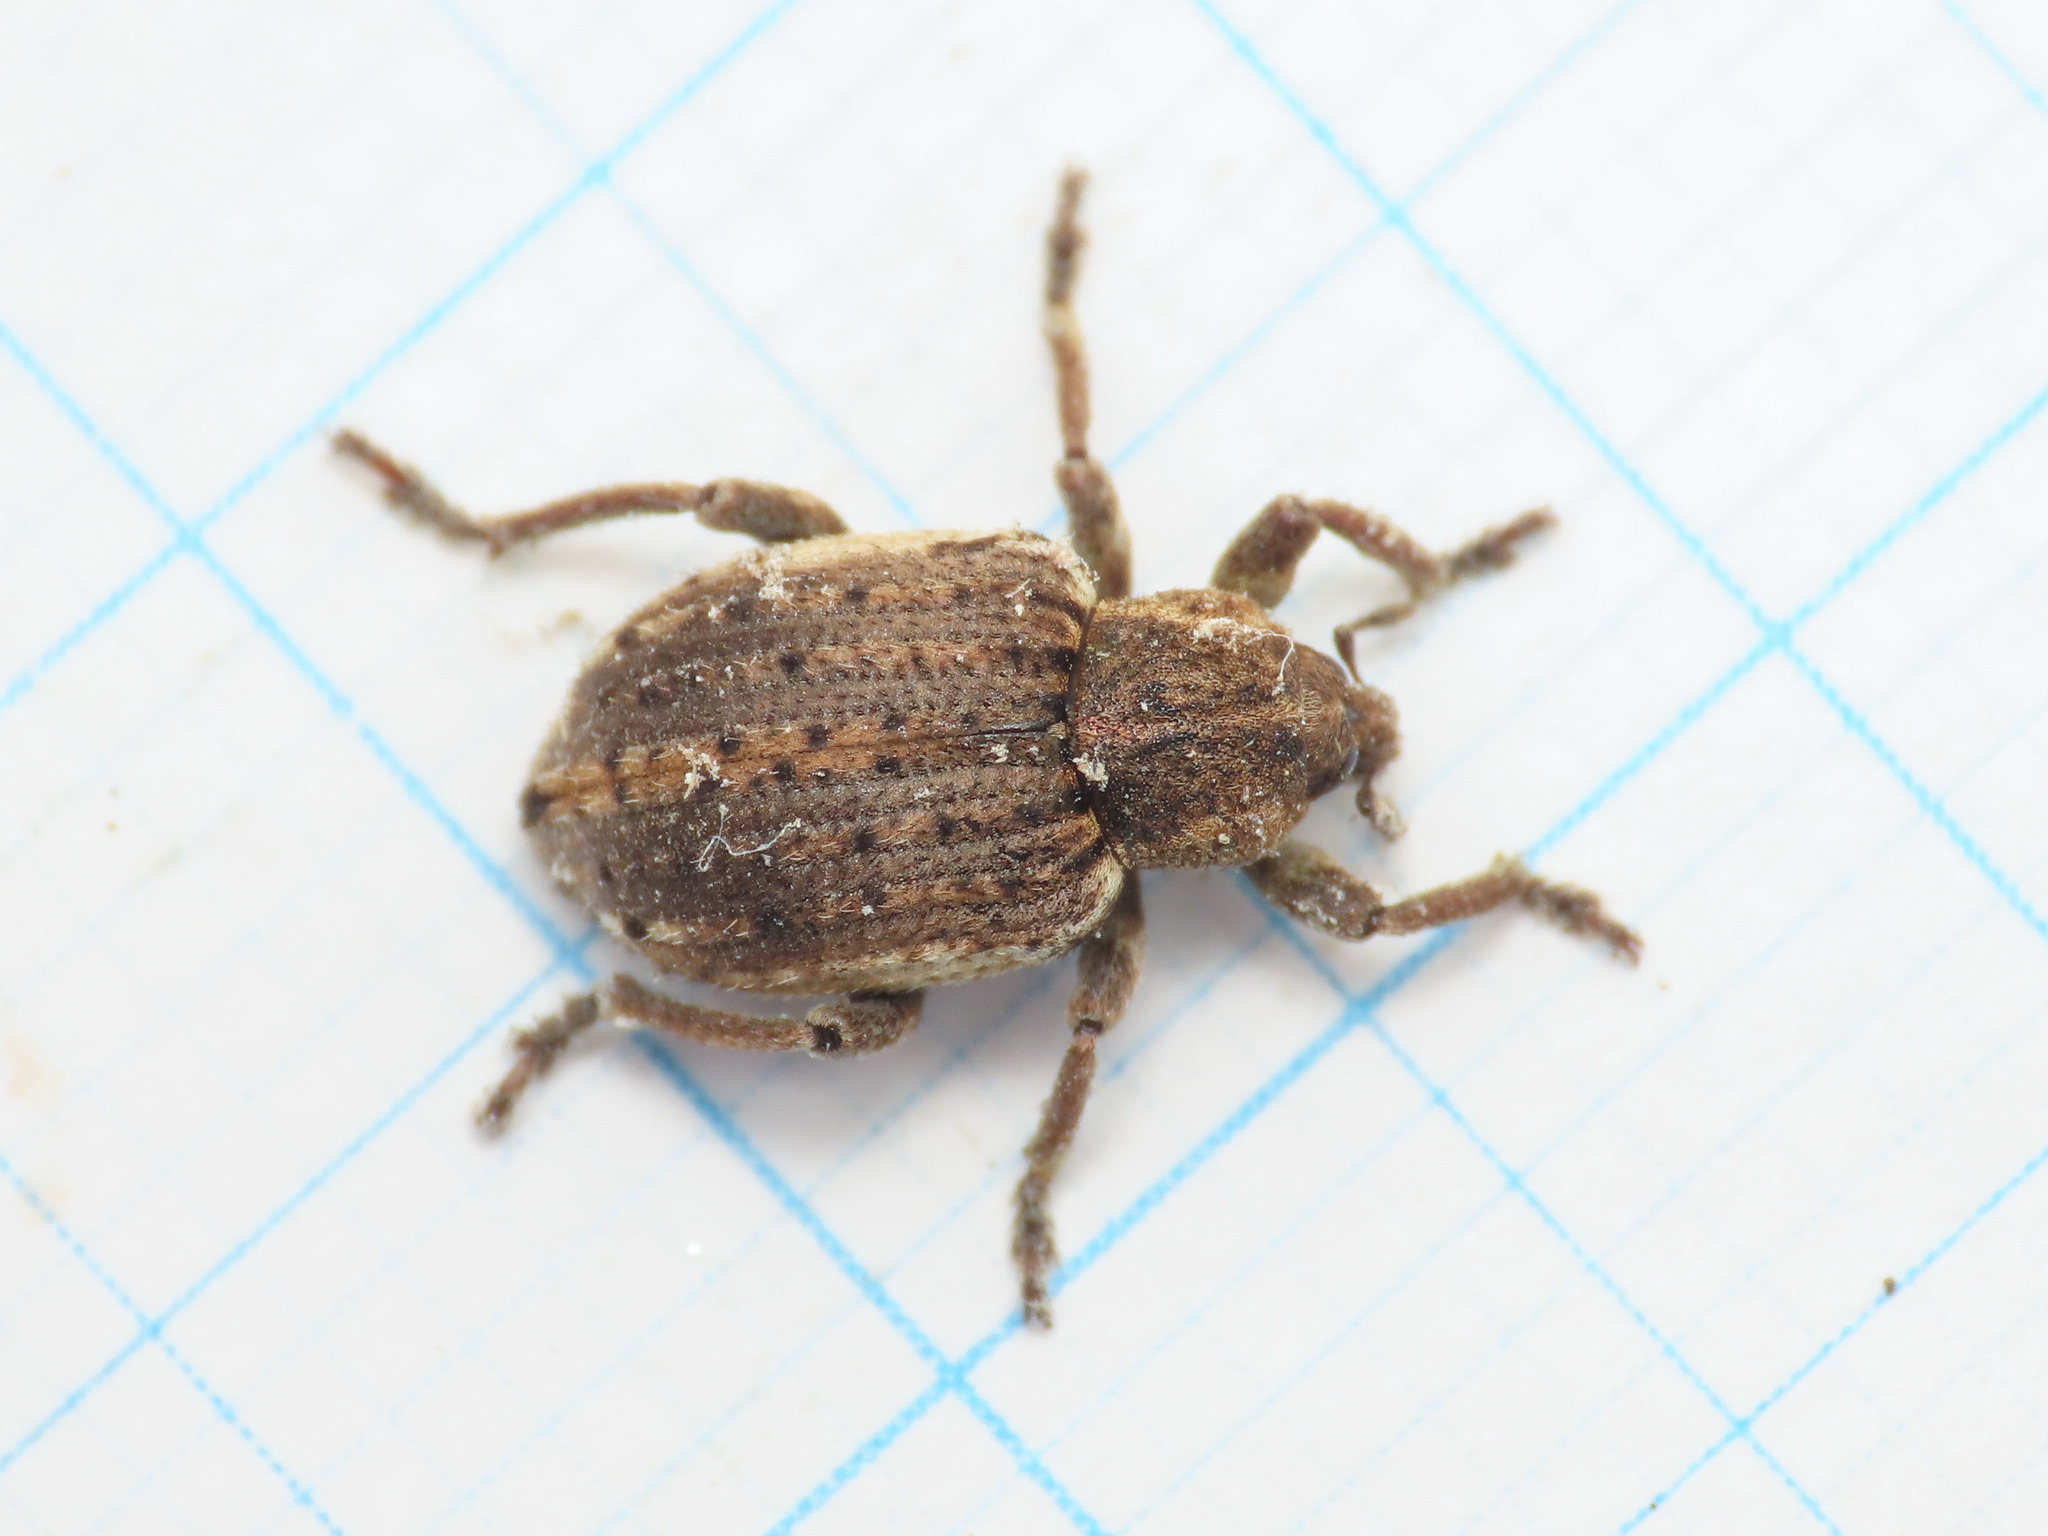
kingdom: Animalia
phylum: Arthropoda
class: Insecta
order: Coleoptera
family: Curculionidae
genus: Brachypera
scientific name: Brachypera zoilus
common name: Clover leaf weevil
